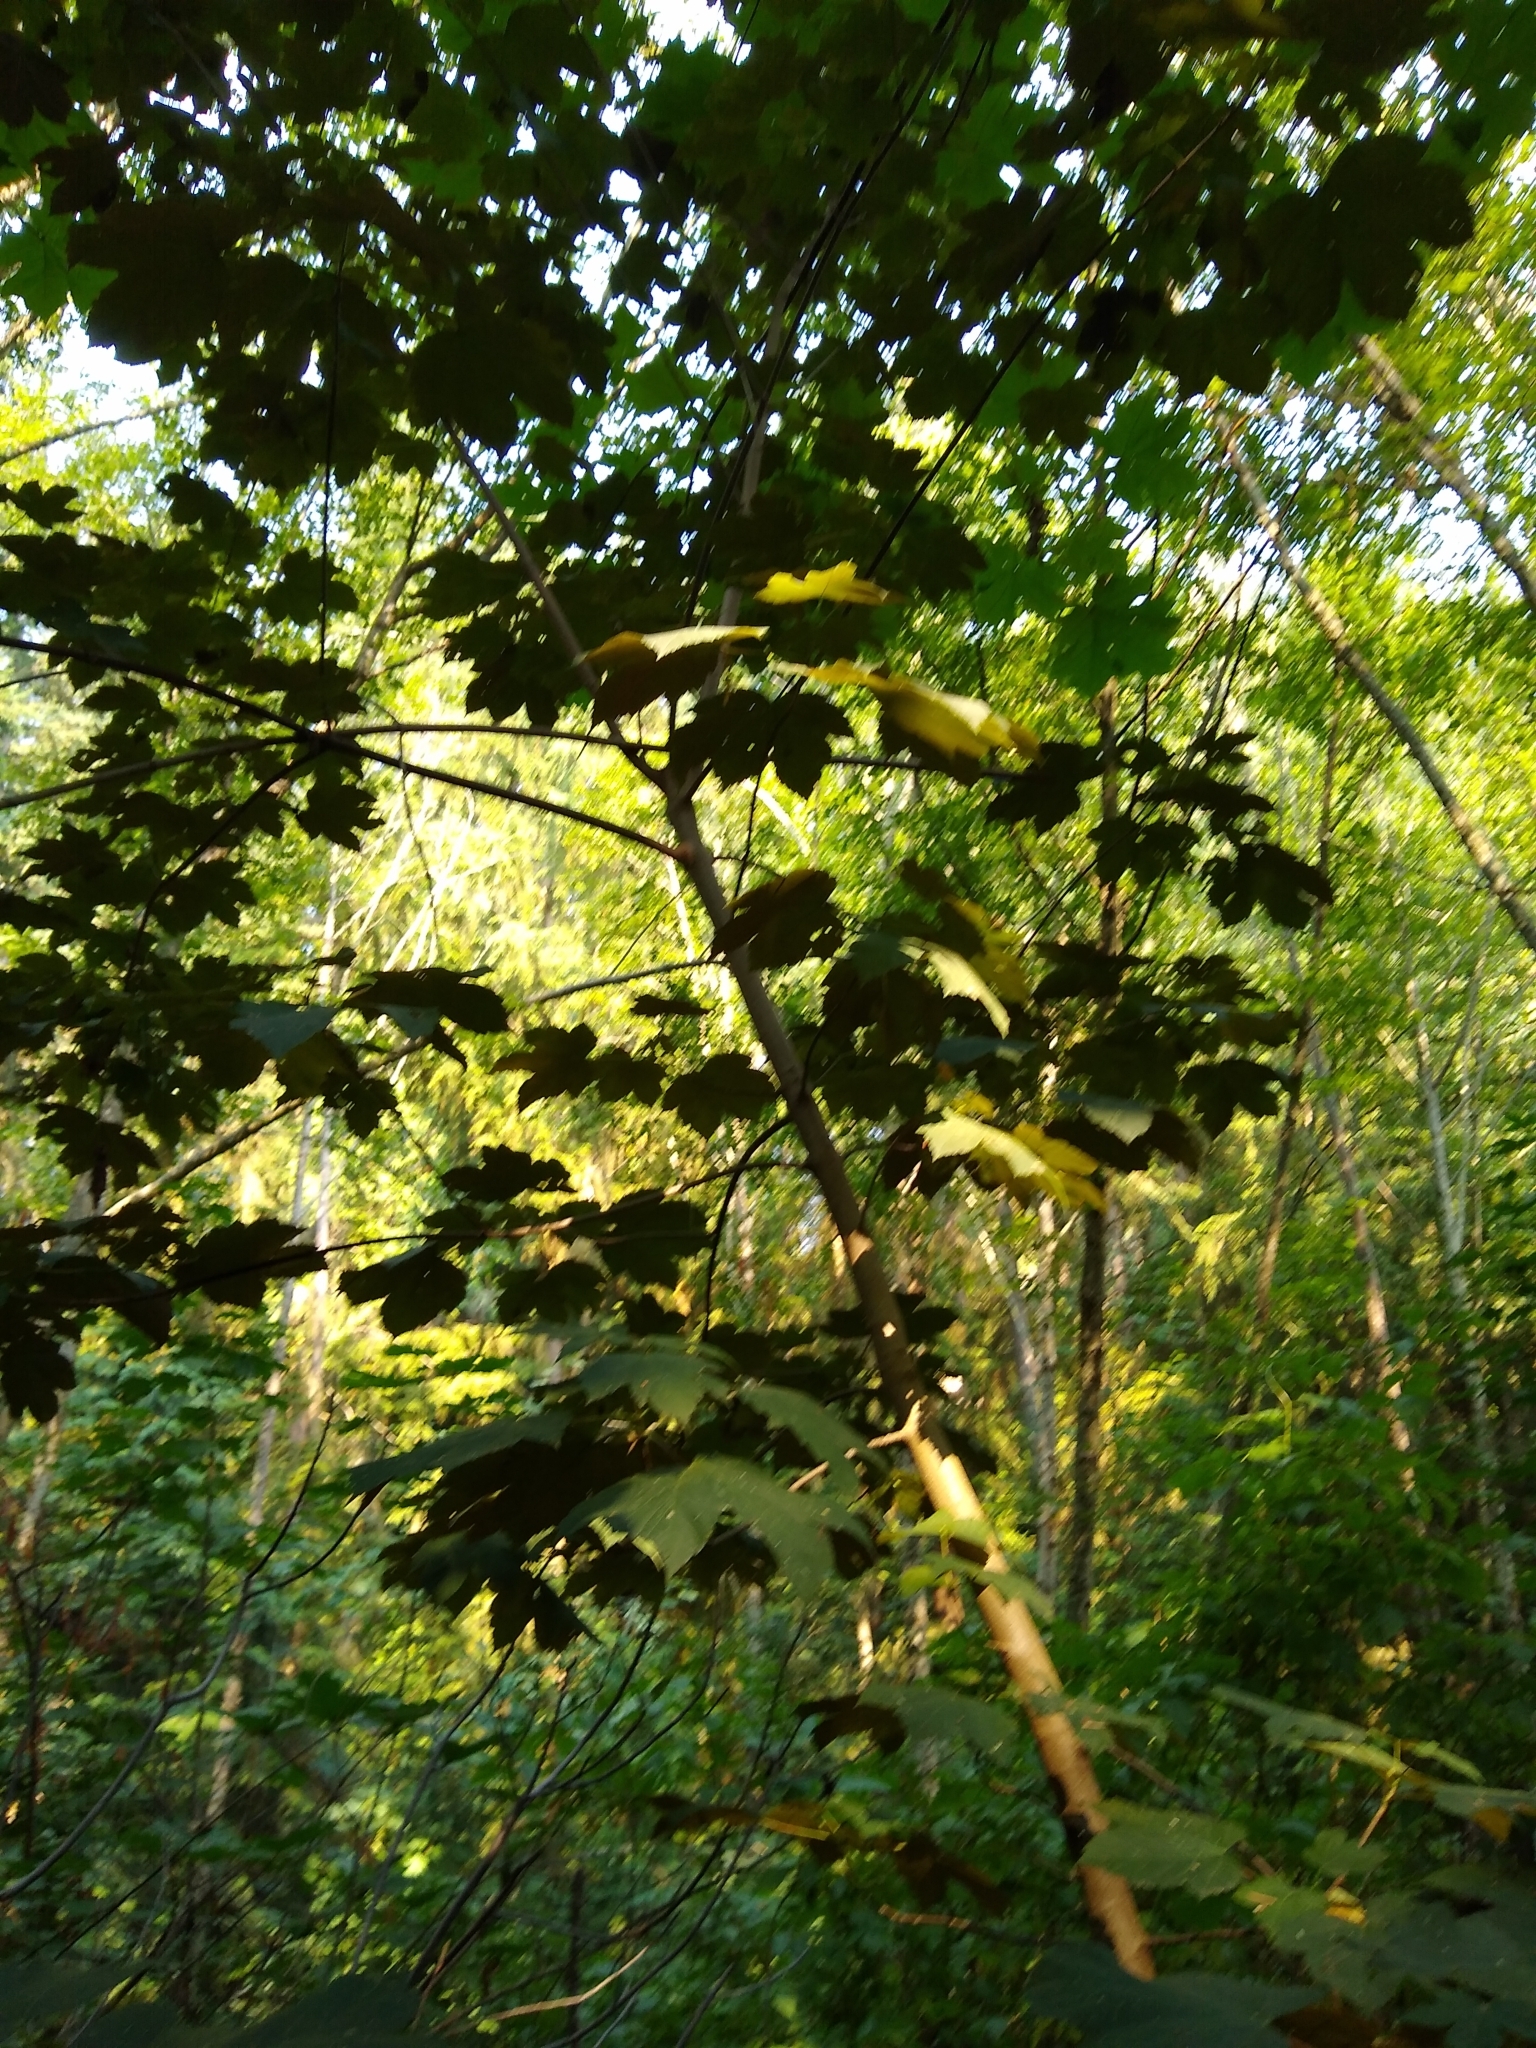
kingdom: Plantae
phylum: Tracheophyta
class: Magnoliopsida
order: Sapindales
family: Sapindaceae
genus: Acer
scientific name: Acer pseudoplatanus
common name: Sycamore
